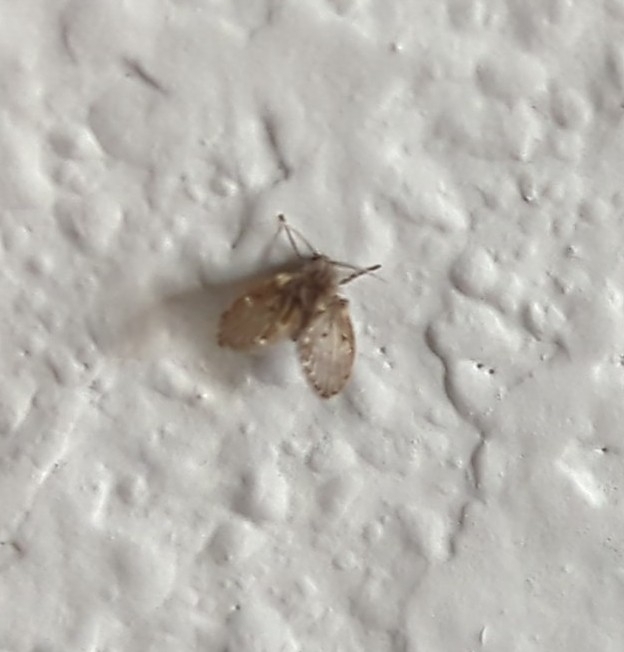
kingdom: Animalia
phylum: Arthropoda
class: Insecta
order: Diptera
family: Psychodidae
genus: Clogmia
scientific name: Clogmia albipunctatus
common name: White-spotted moth fly
